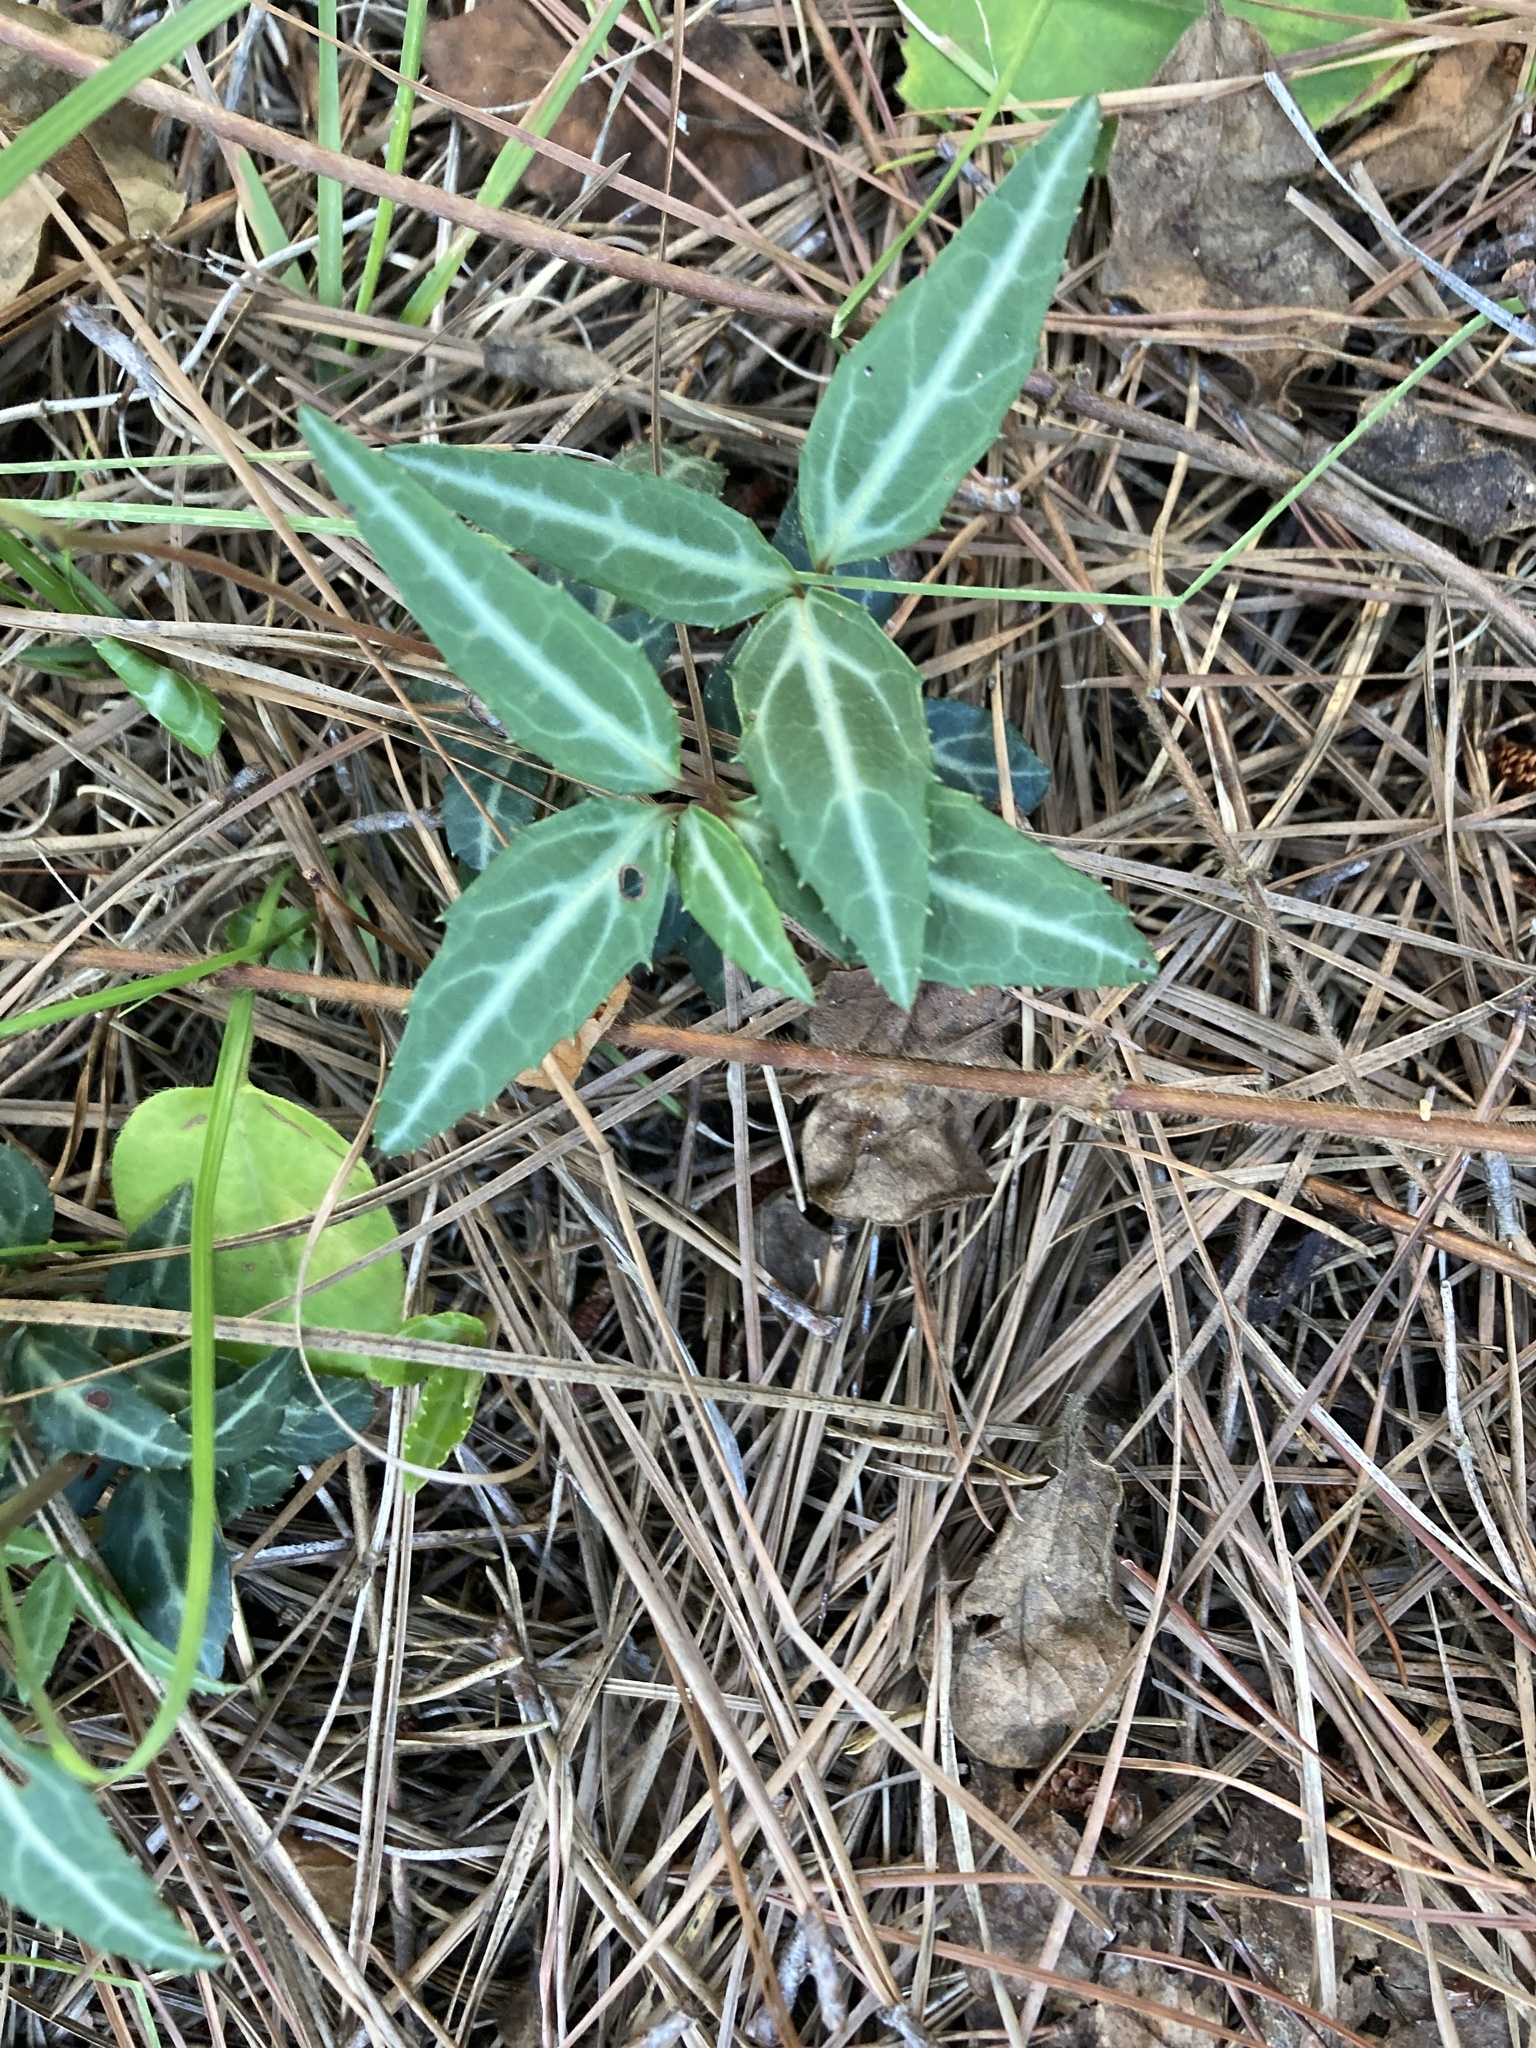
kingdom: Plantae
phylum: Tracheophyta
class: Magnoliopsida
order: Ericales
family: Ericaceae
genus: Chimaphila
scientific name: Chimaphila maculata
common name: Spotted pipsissewa
